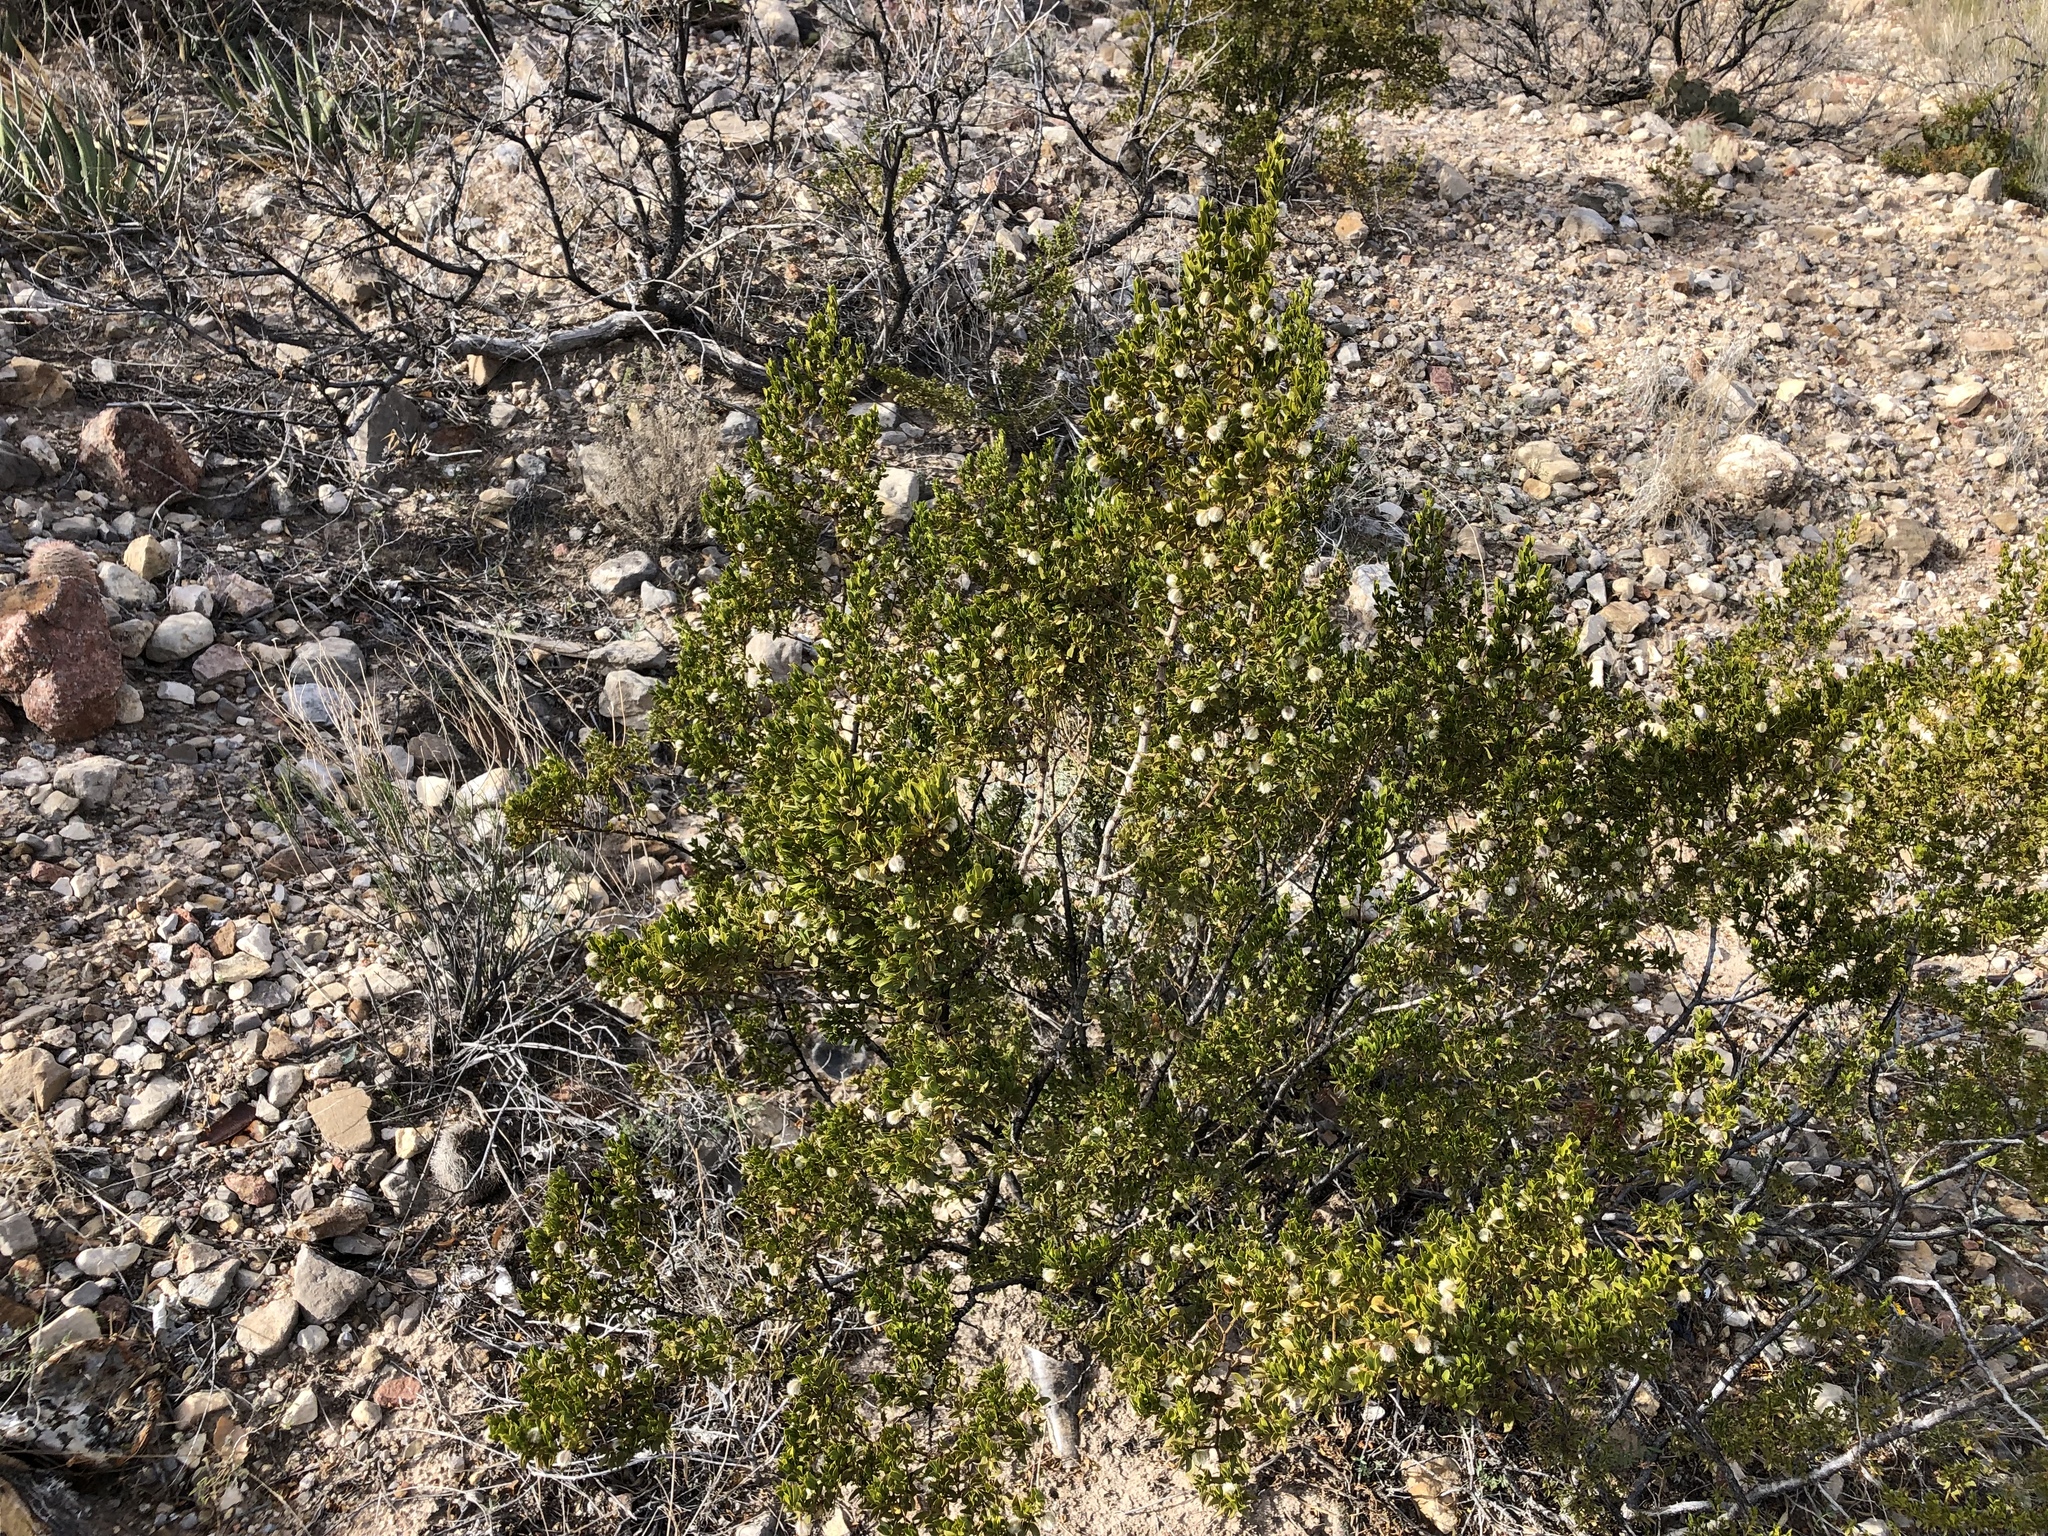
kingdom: Plantae
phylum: Tracheophyta
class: Magnoliopsida
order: Zygophyllales
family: Zygophyllaceae
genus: Larrea
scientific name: Larrea tridentata
